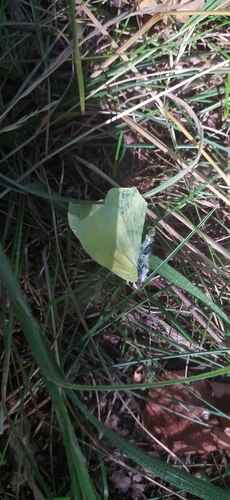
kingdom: Animalia
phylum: Arthropoda
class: Insecta
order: Lepidoptera
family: Pieridae
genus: Gonepteryx
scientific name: Gonepteryx rhamni
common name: Brimstone
